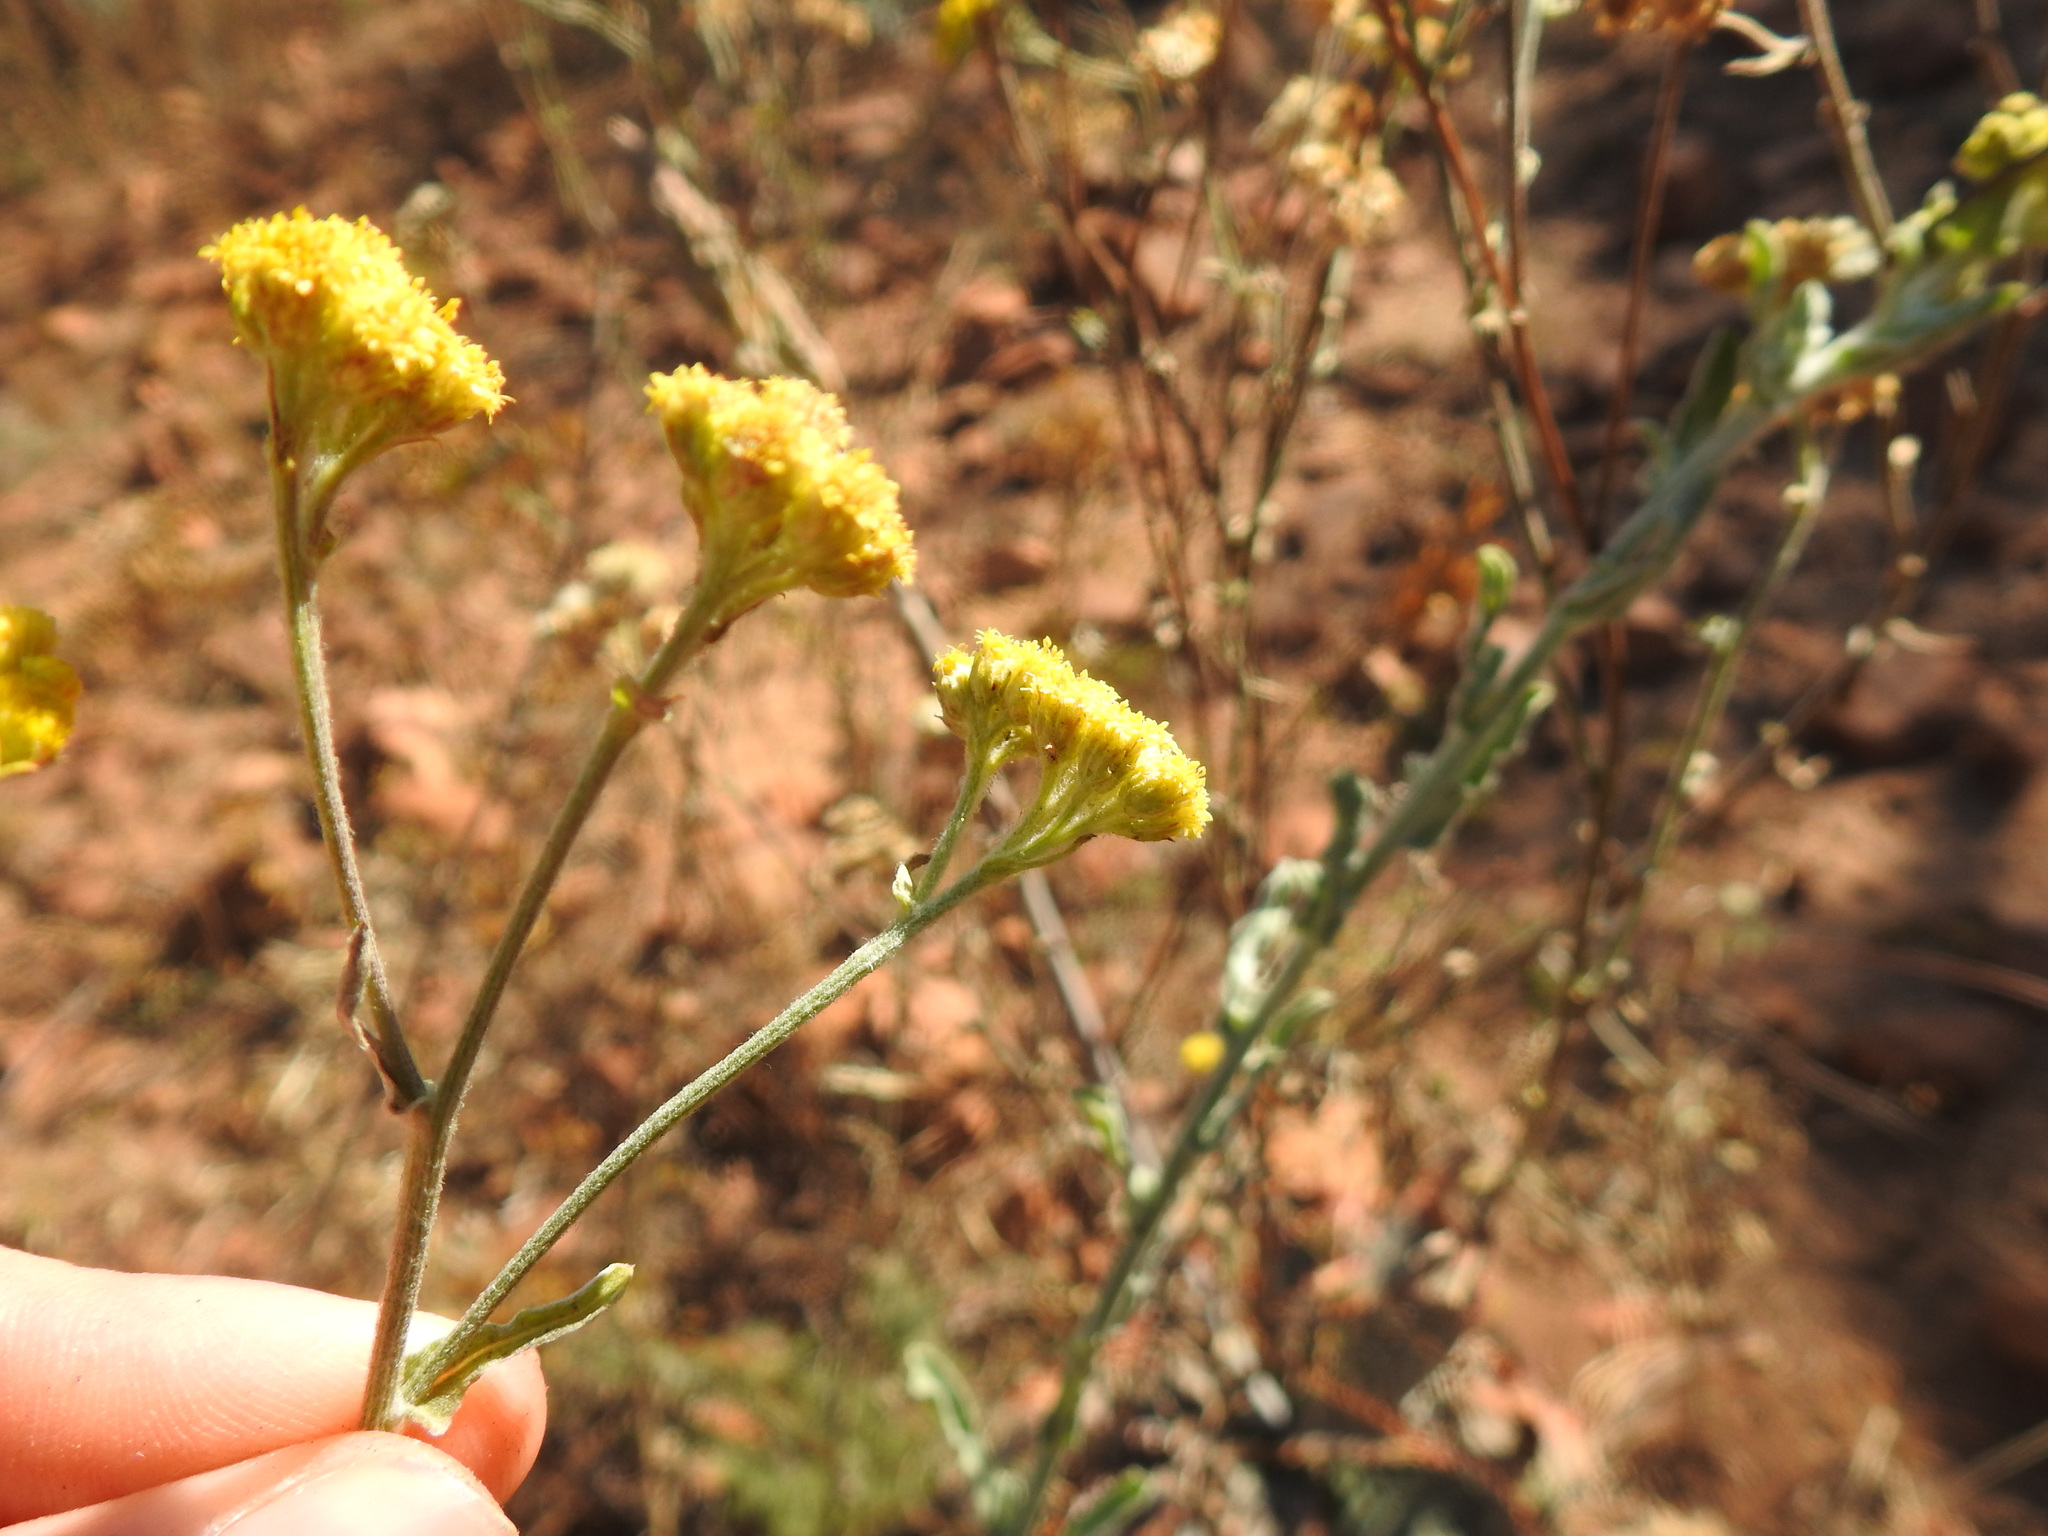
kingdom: Plantae
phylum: Tracheophyta
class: Magnoliopsida
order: Asterales
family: Asteraceae
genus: Nidorella
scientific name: Nidorella hottentotica
